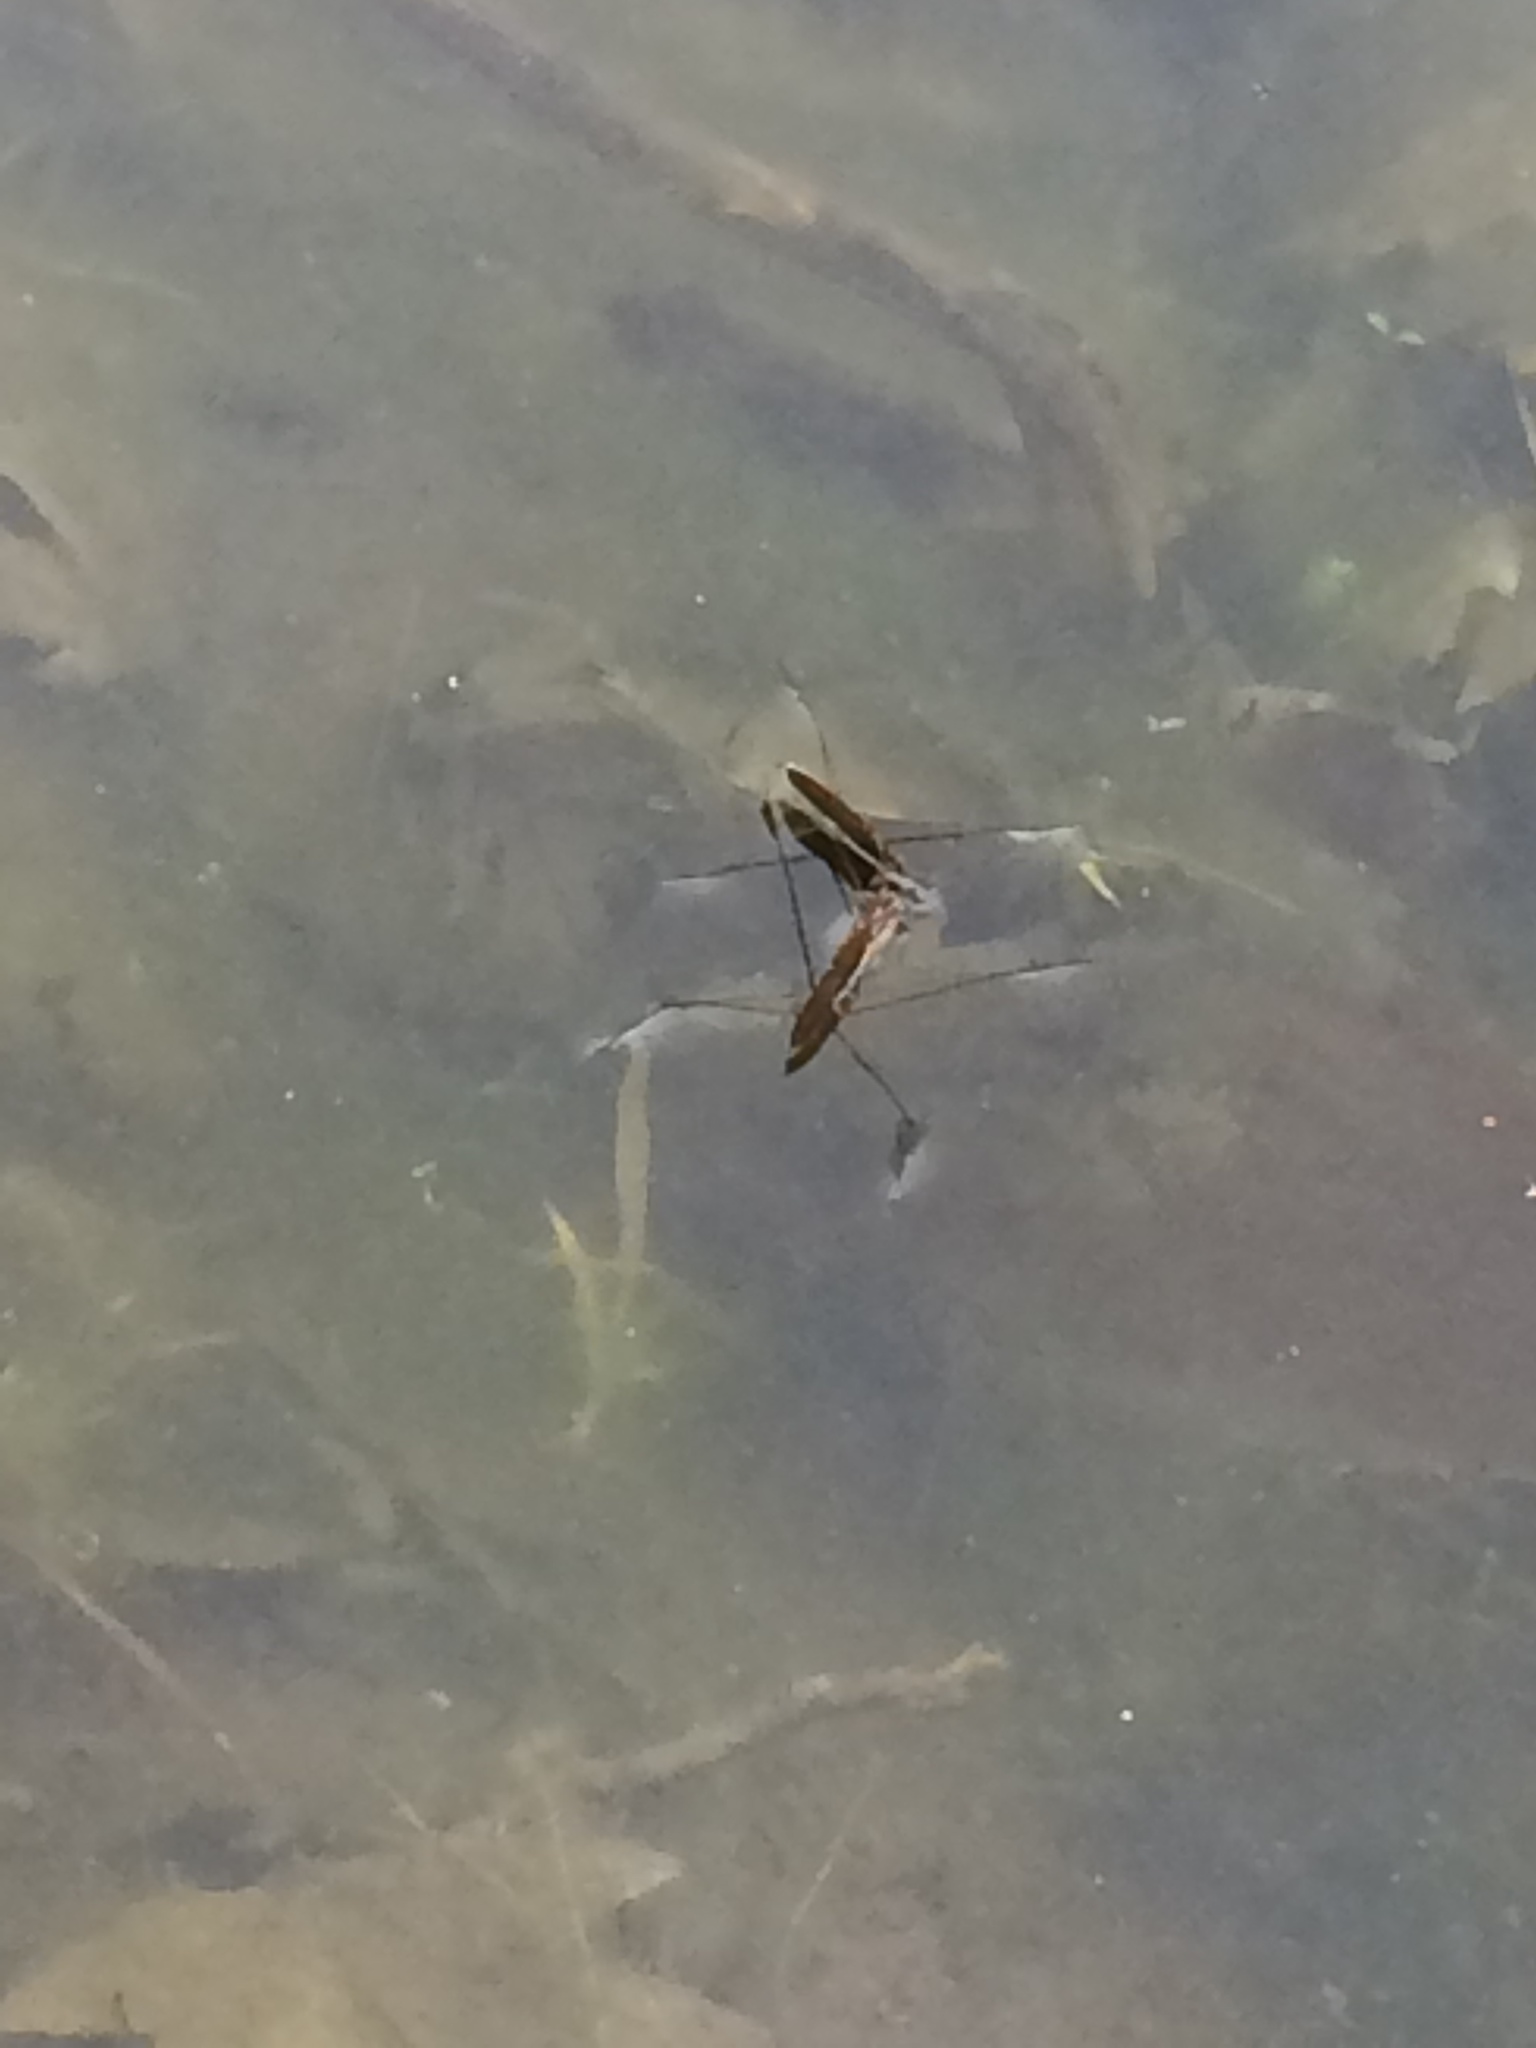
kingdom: Animalia
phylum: Arthropoda
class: Insecta
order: Hemiptera
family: Gerridae
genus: Limnoporus
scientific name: Limnoporus dissortis
